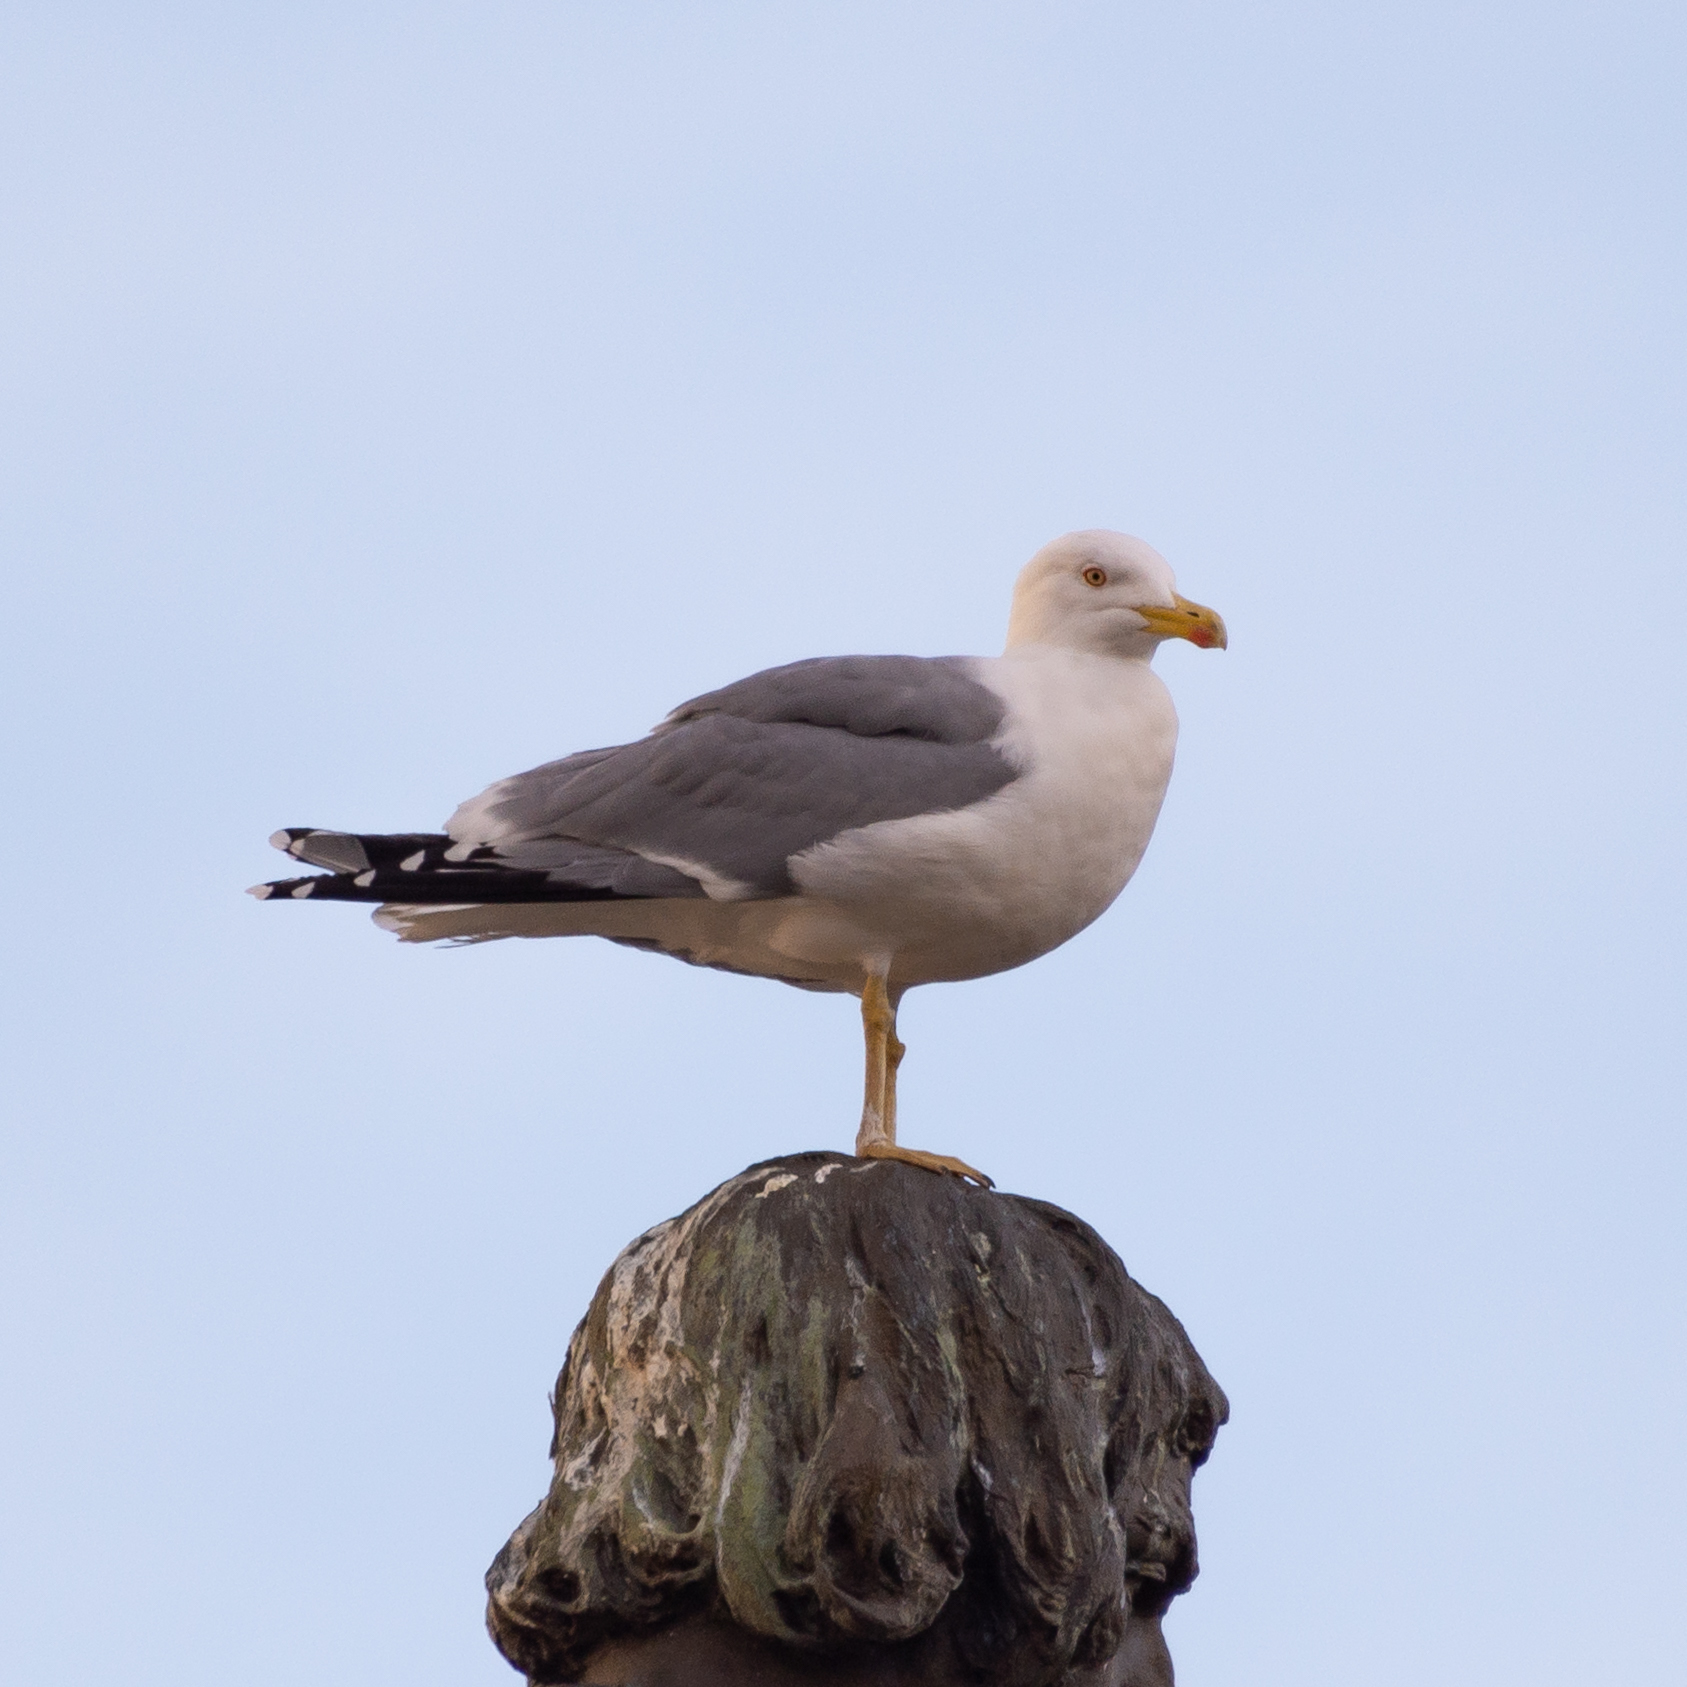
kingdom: Animalia
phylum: Chordata
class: Aves
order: Charadriiformes
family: Laridae
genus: Larus
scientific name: Larus michahellis
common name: Yellow-legged gull
